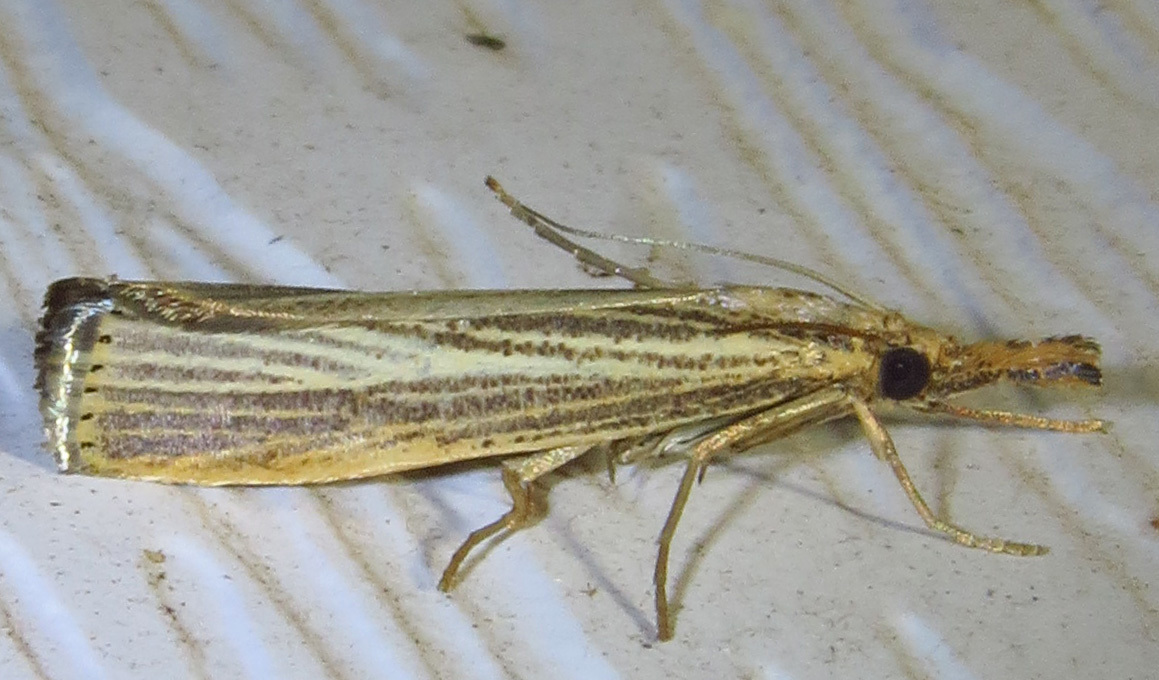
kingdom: Animalia
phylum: Arthropoda
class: Insecta
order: Lepidoptera
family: Crambidae
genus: Agriphila
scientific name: Agriphila vulgivagellus
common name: Vagabond crambus moth
